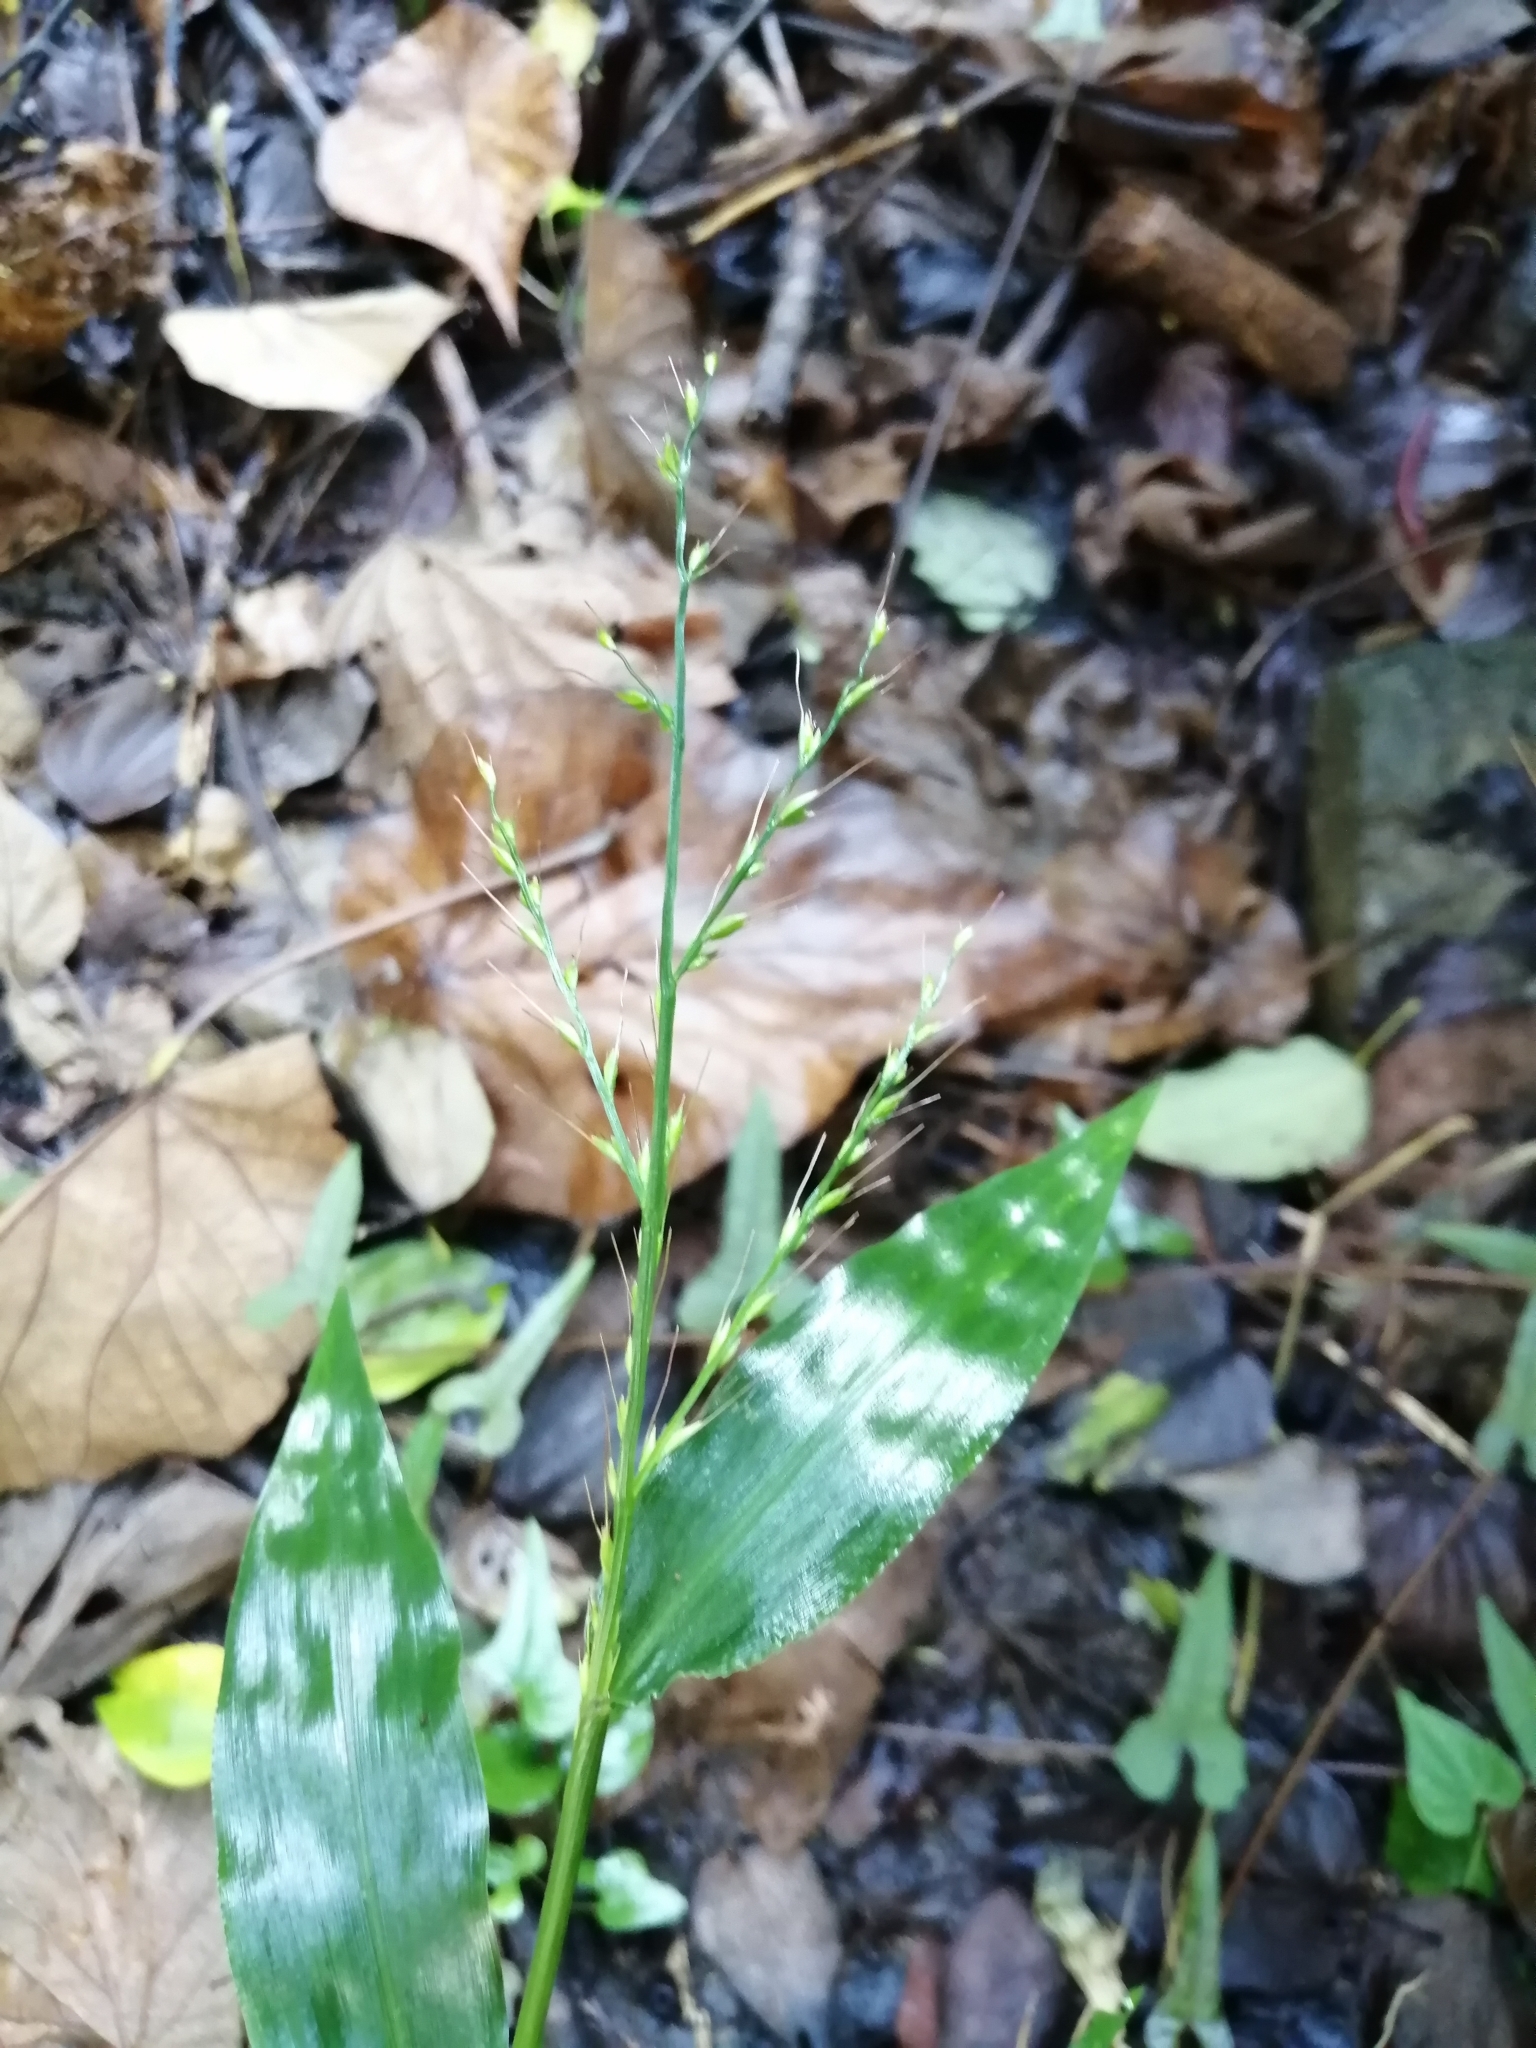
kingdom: Plantae
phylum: Tracheophyta
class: Liliopsida
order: Poales
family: Poaceae
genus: Oplismenus
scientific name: Oplismenus compositus
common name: Running mountain grass
